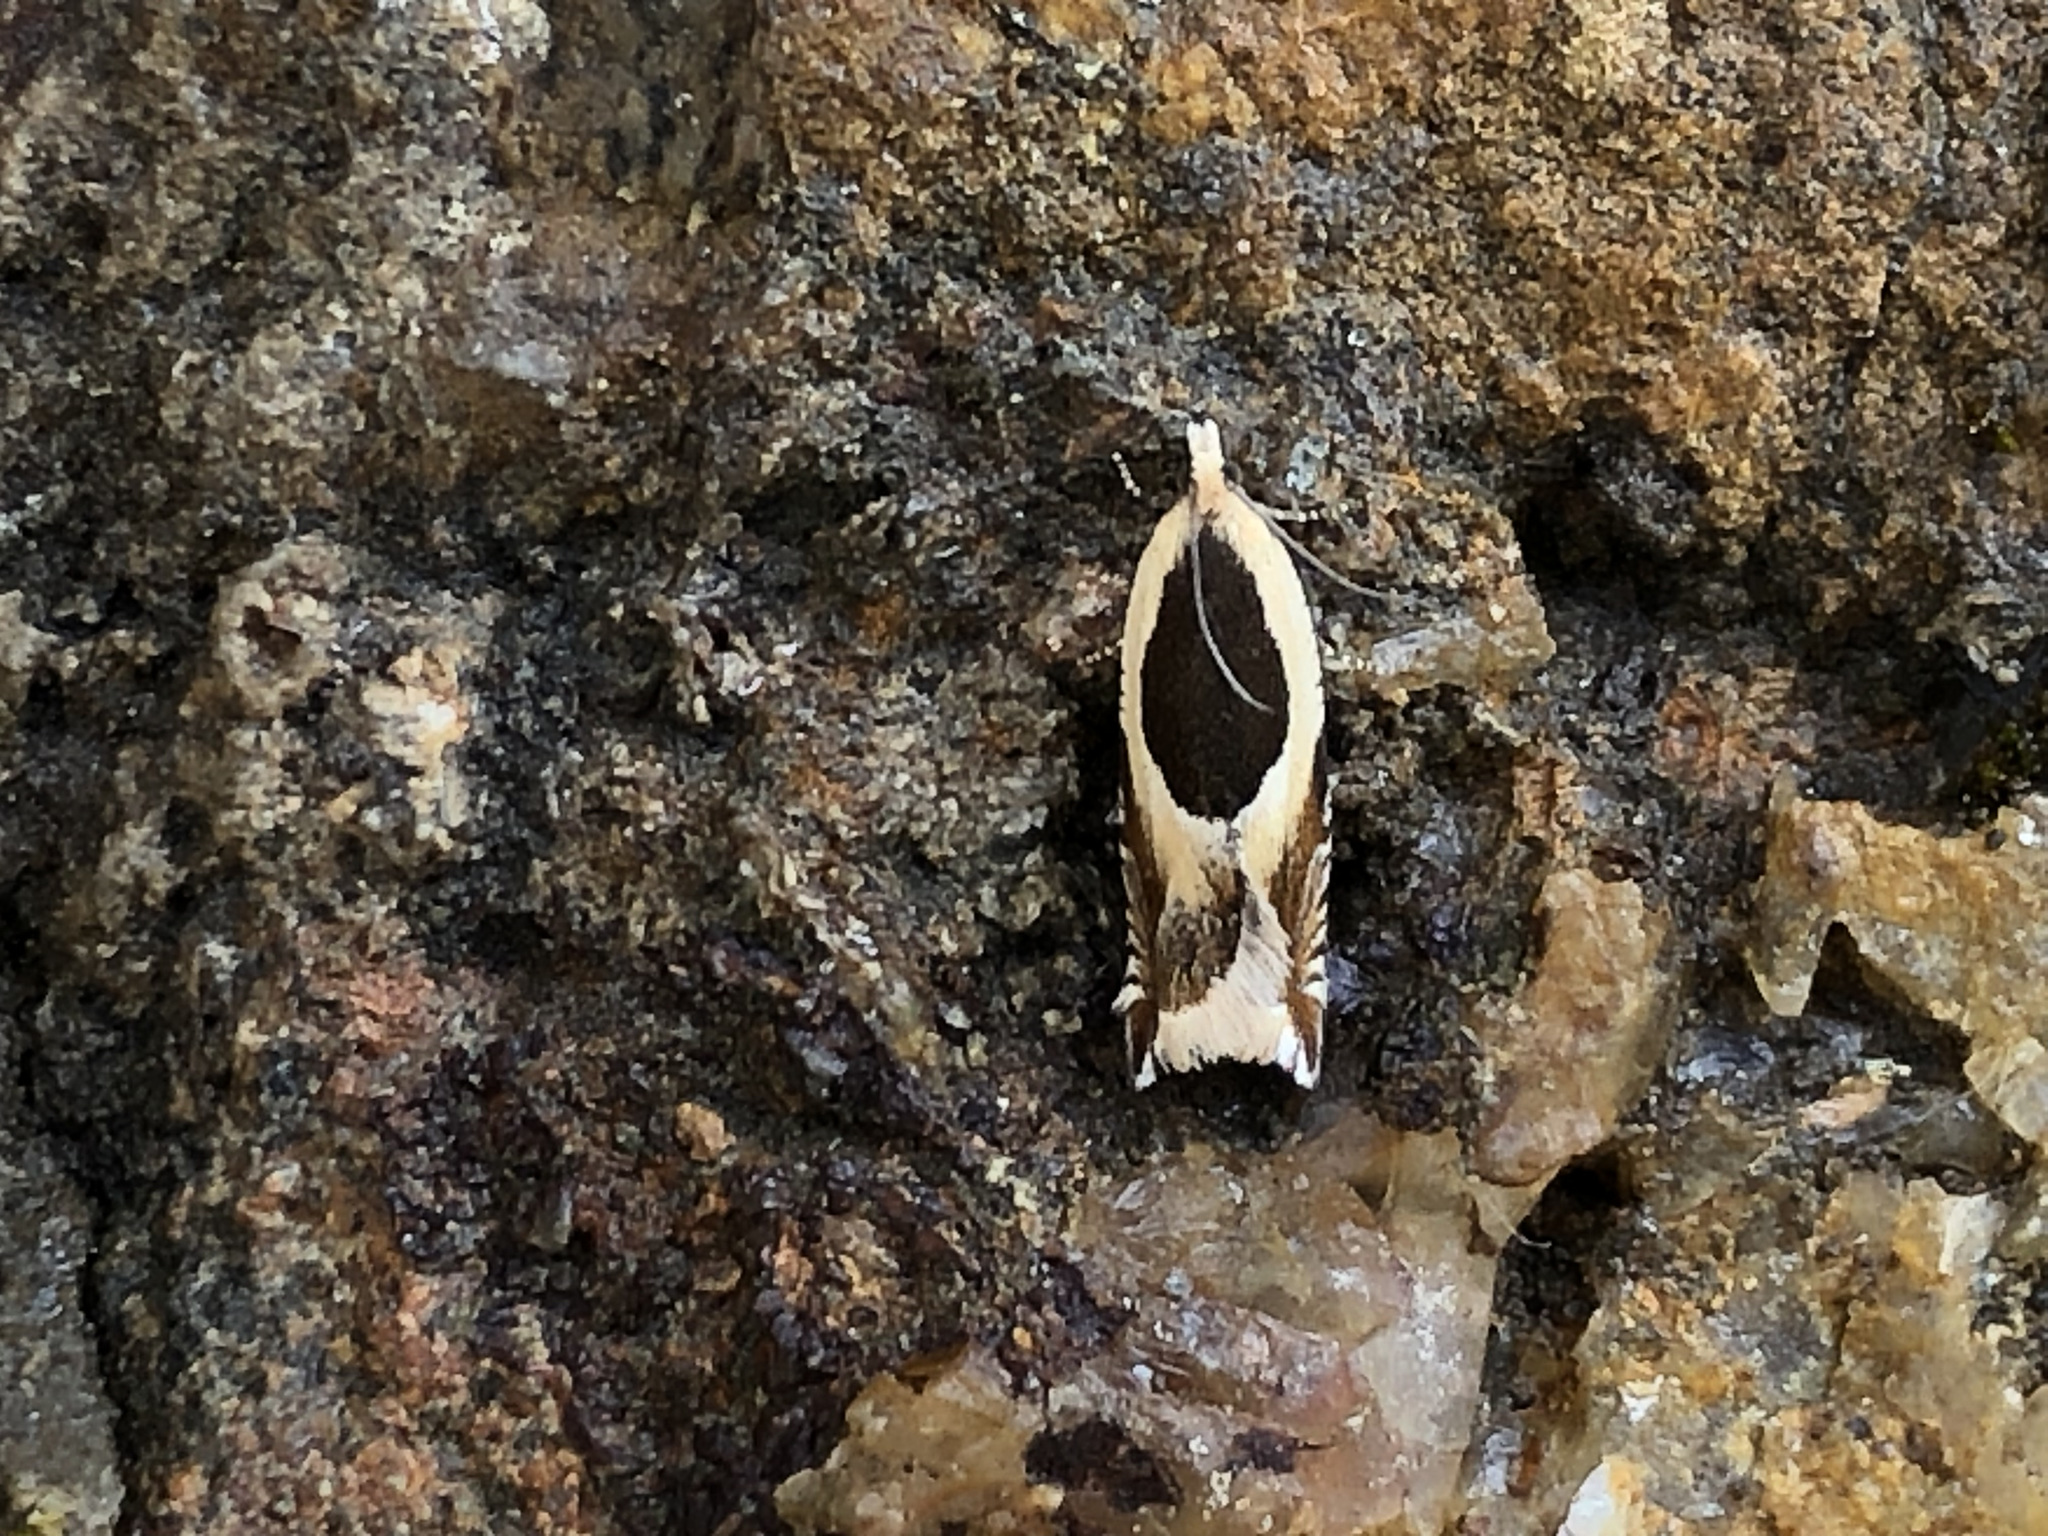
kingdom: Animalia
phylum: Arthropoda
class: Insecta
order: Lepidoptera
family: Tortricidae
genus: Ancylis
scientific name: Ancylis badiana
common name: Common roller
